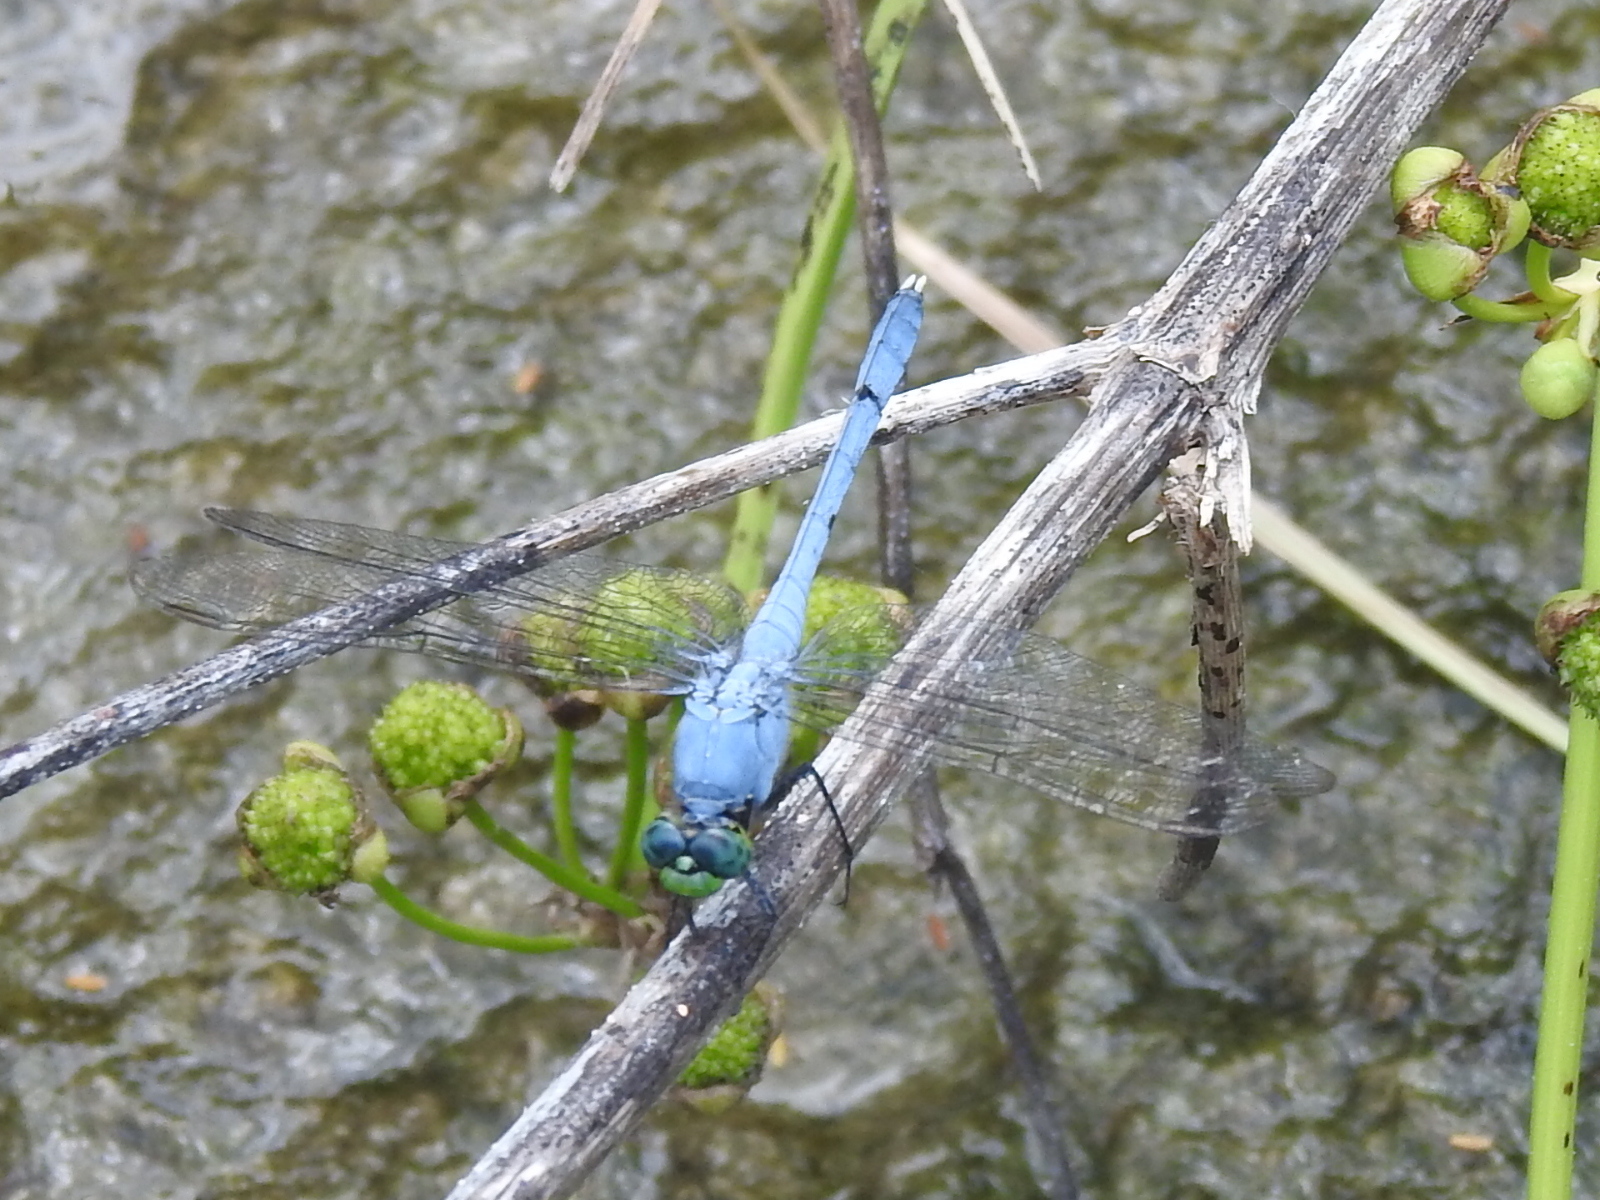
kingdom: Animalia
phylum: Arthropoda
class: Insecta
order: Odonata
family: Libellulidae
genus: Erythemis
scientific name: Erythemis simplicicollis
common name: Eastern pondhawk
